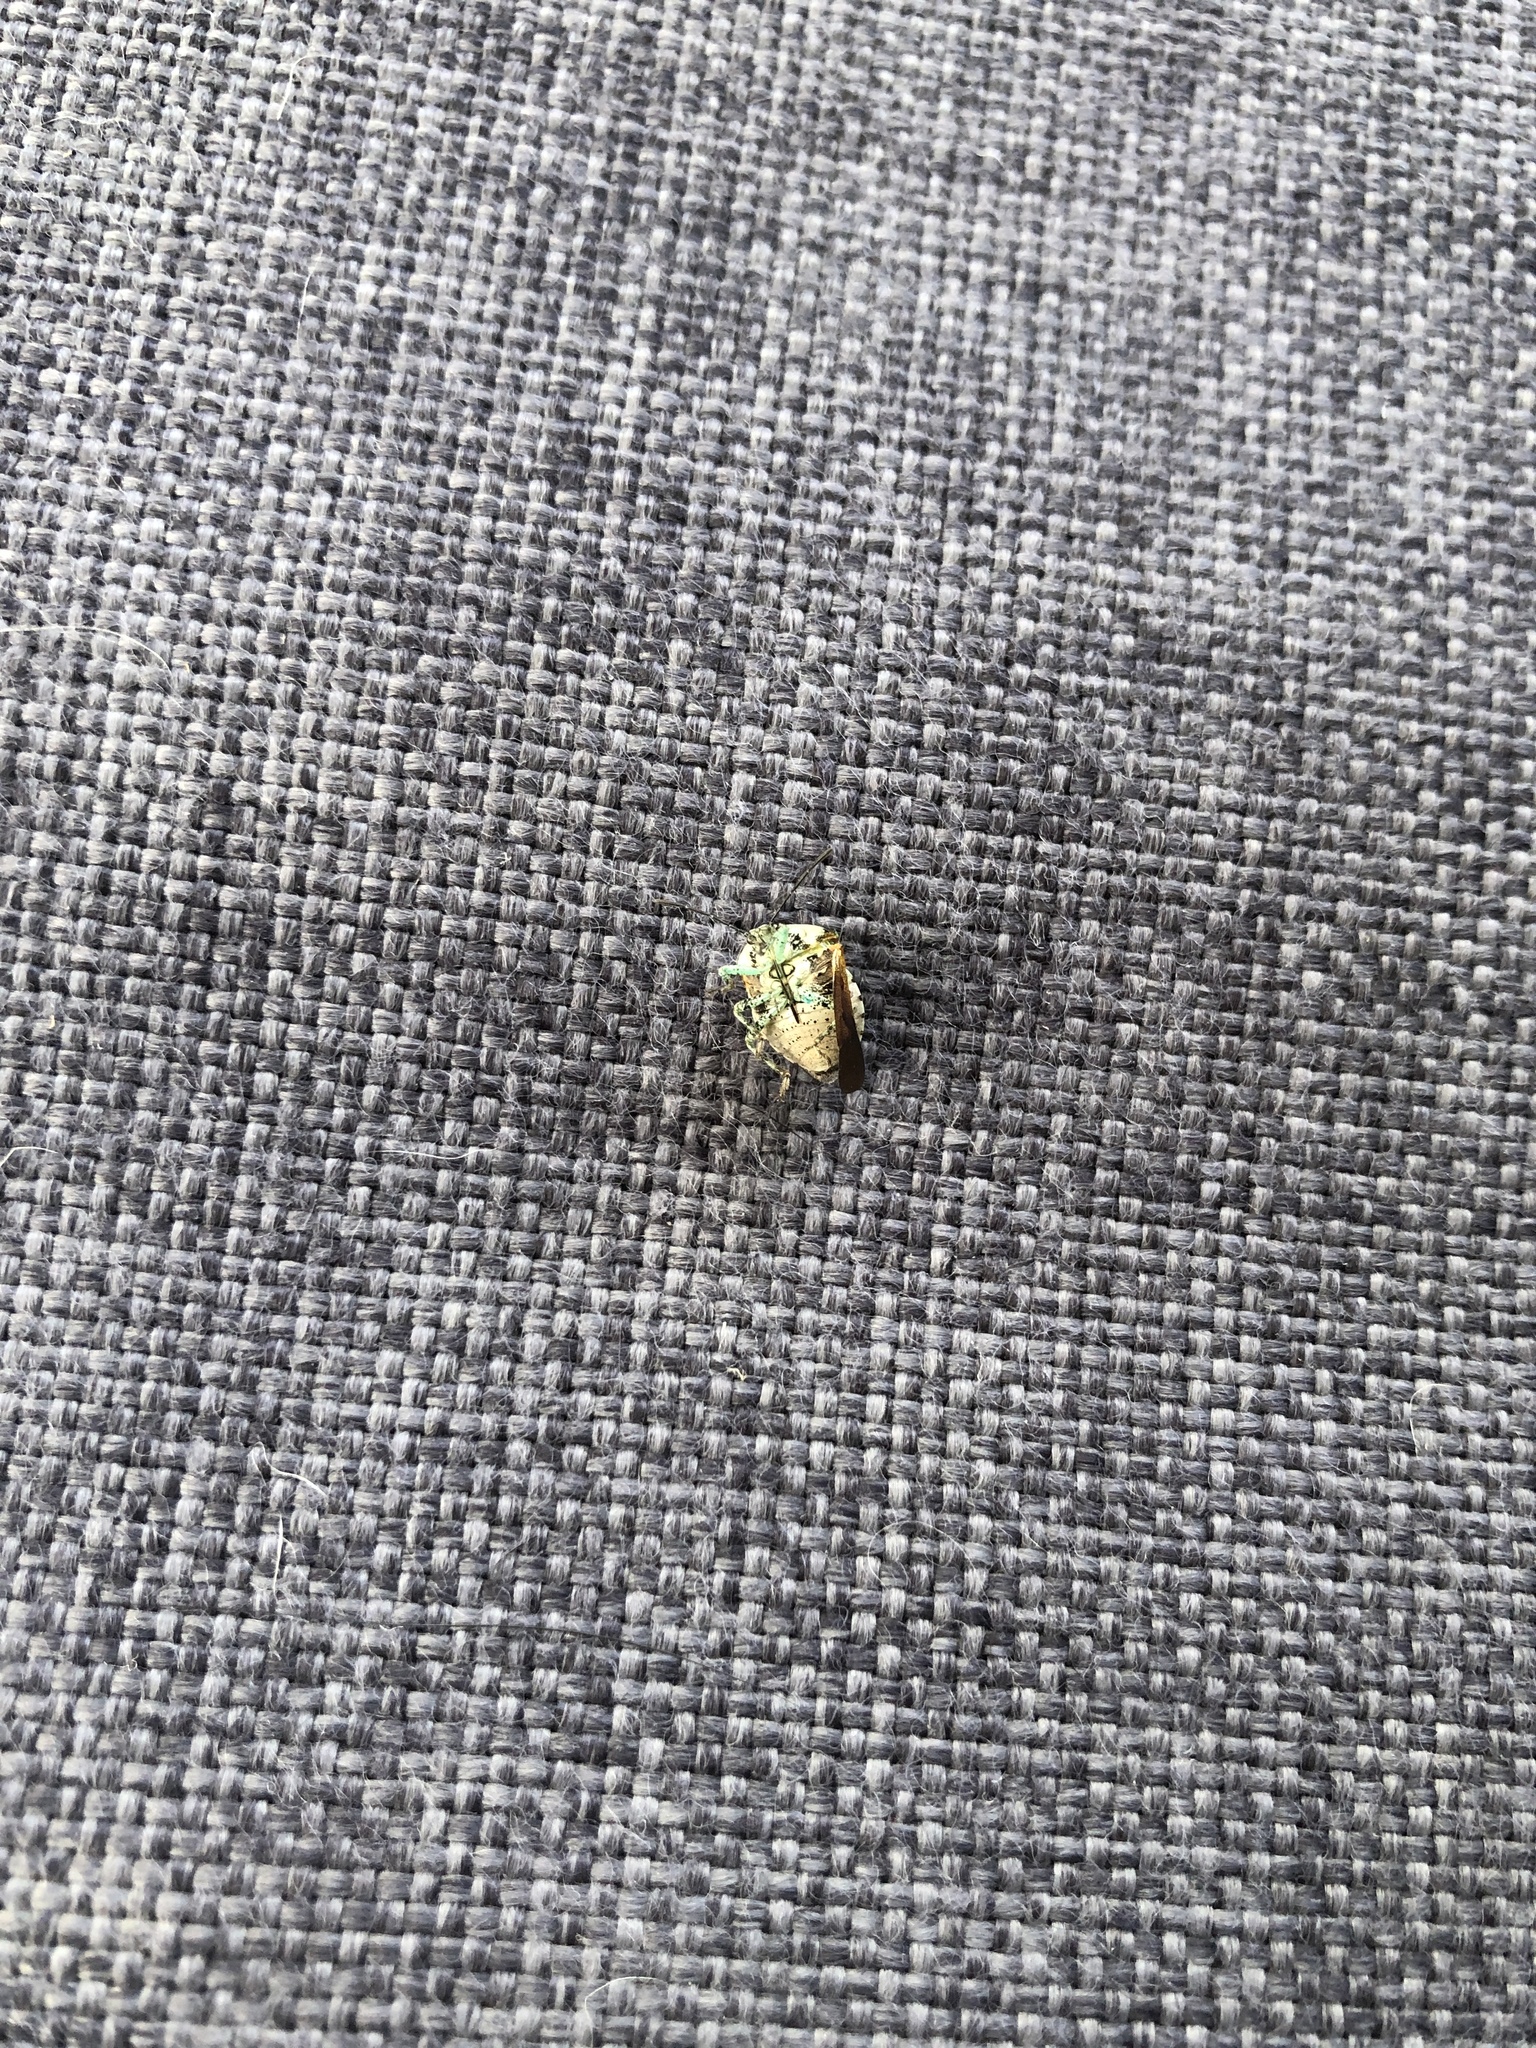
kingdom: Animalia
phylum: Arthropoda
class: Insecta
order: Hemiptera
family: Pentatomidae
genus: Monteithiella
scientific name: Monteithiella
